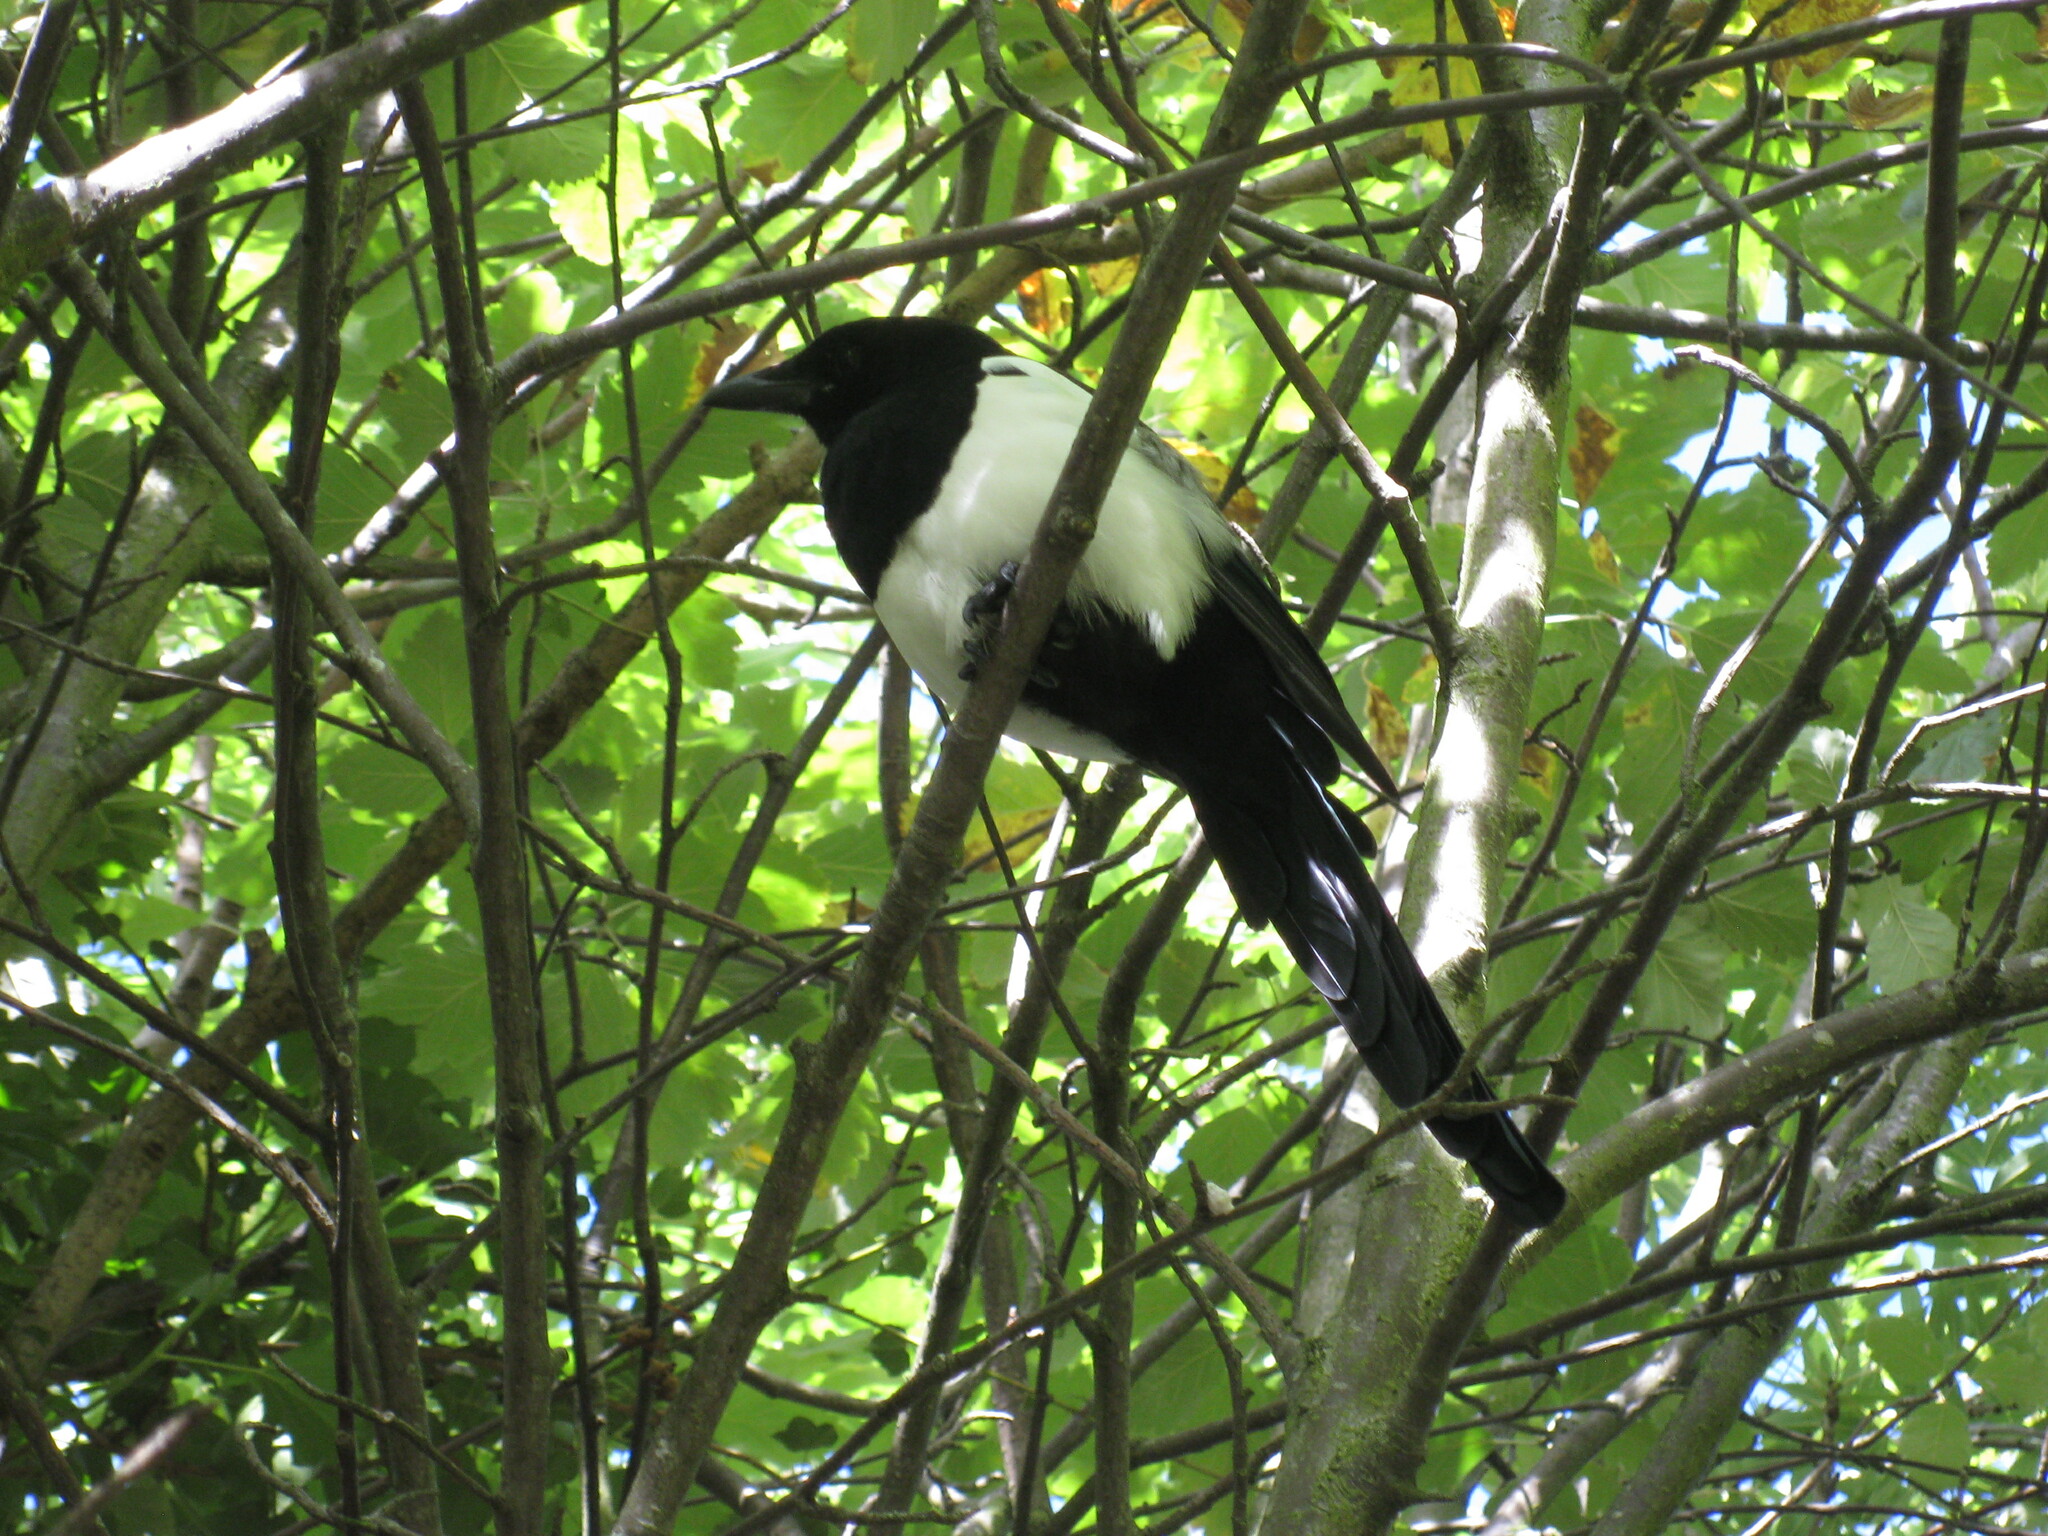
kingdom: Animalia
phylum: Chordata
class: Aves
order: Passeriformes
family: Corvidae
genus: Pica
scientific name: Pica pica
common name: Eurasian magpie
